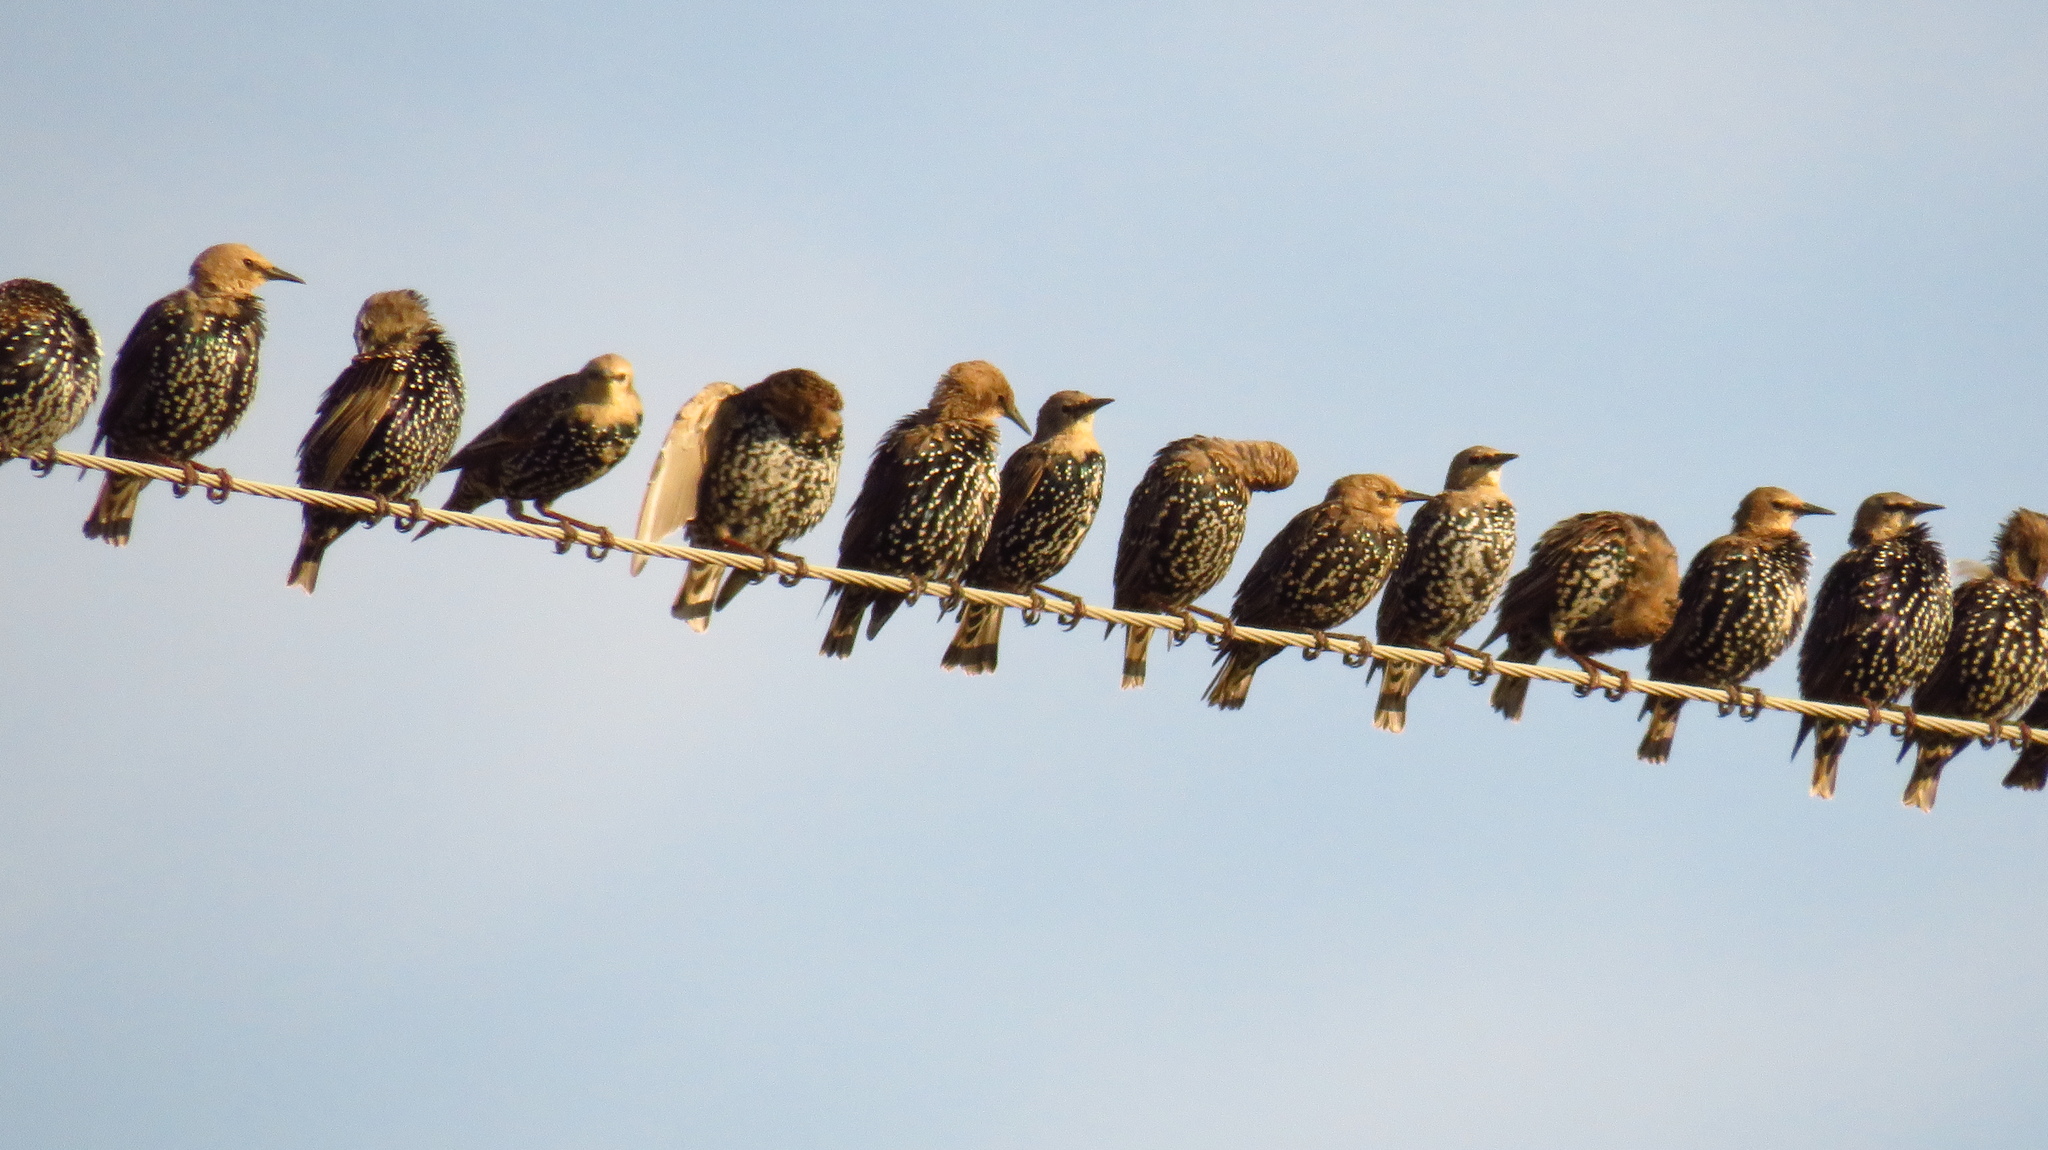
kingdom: Animalia
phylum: Chordata
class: Aves
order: Passeriformes
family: Sturnidae
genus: Sturnus
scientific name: Sturnus vulgaris
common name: Common starling
